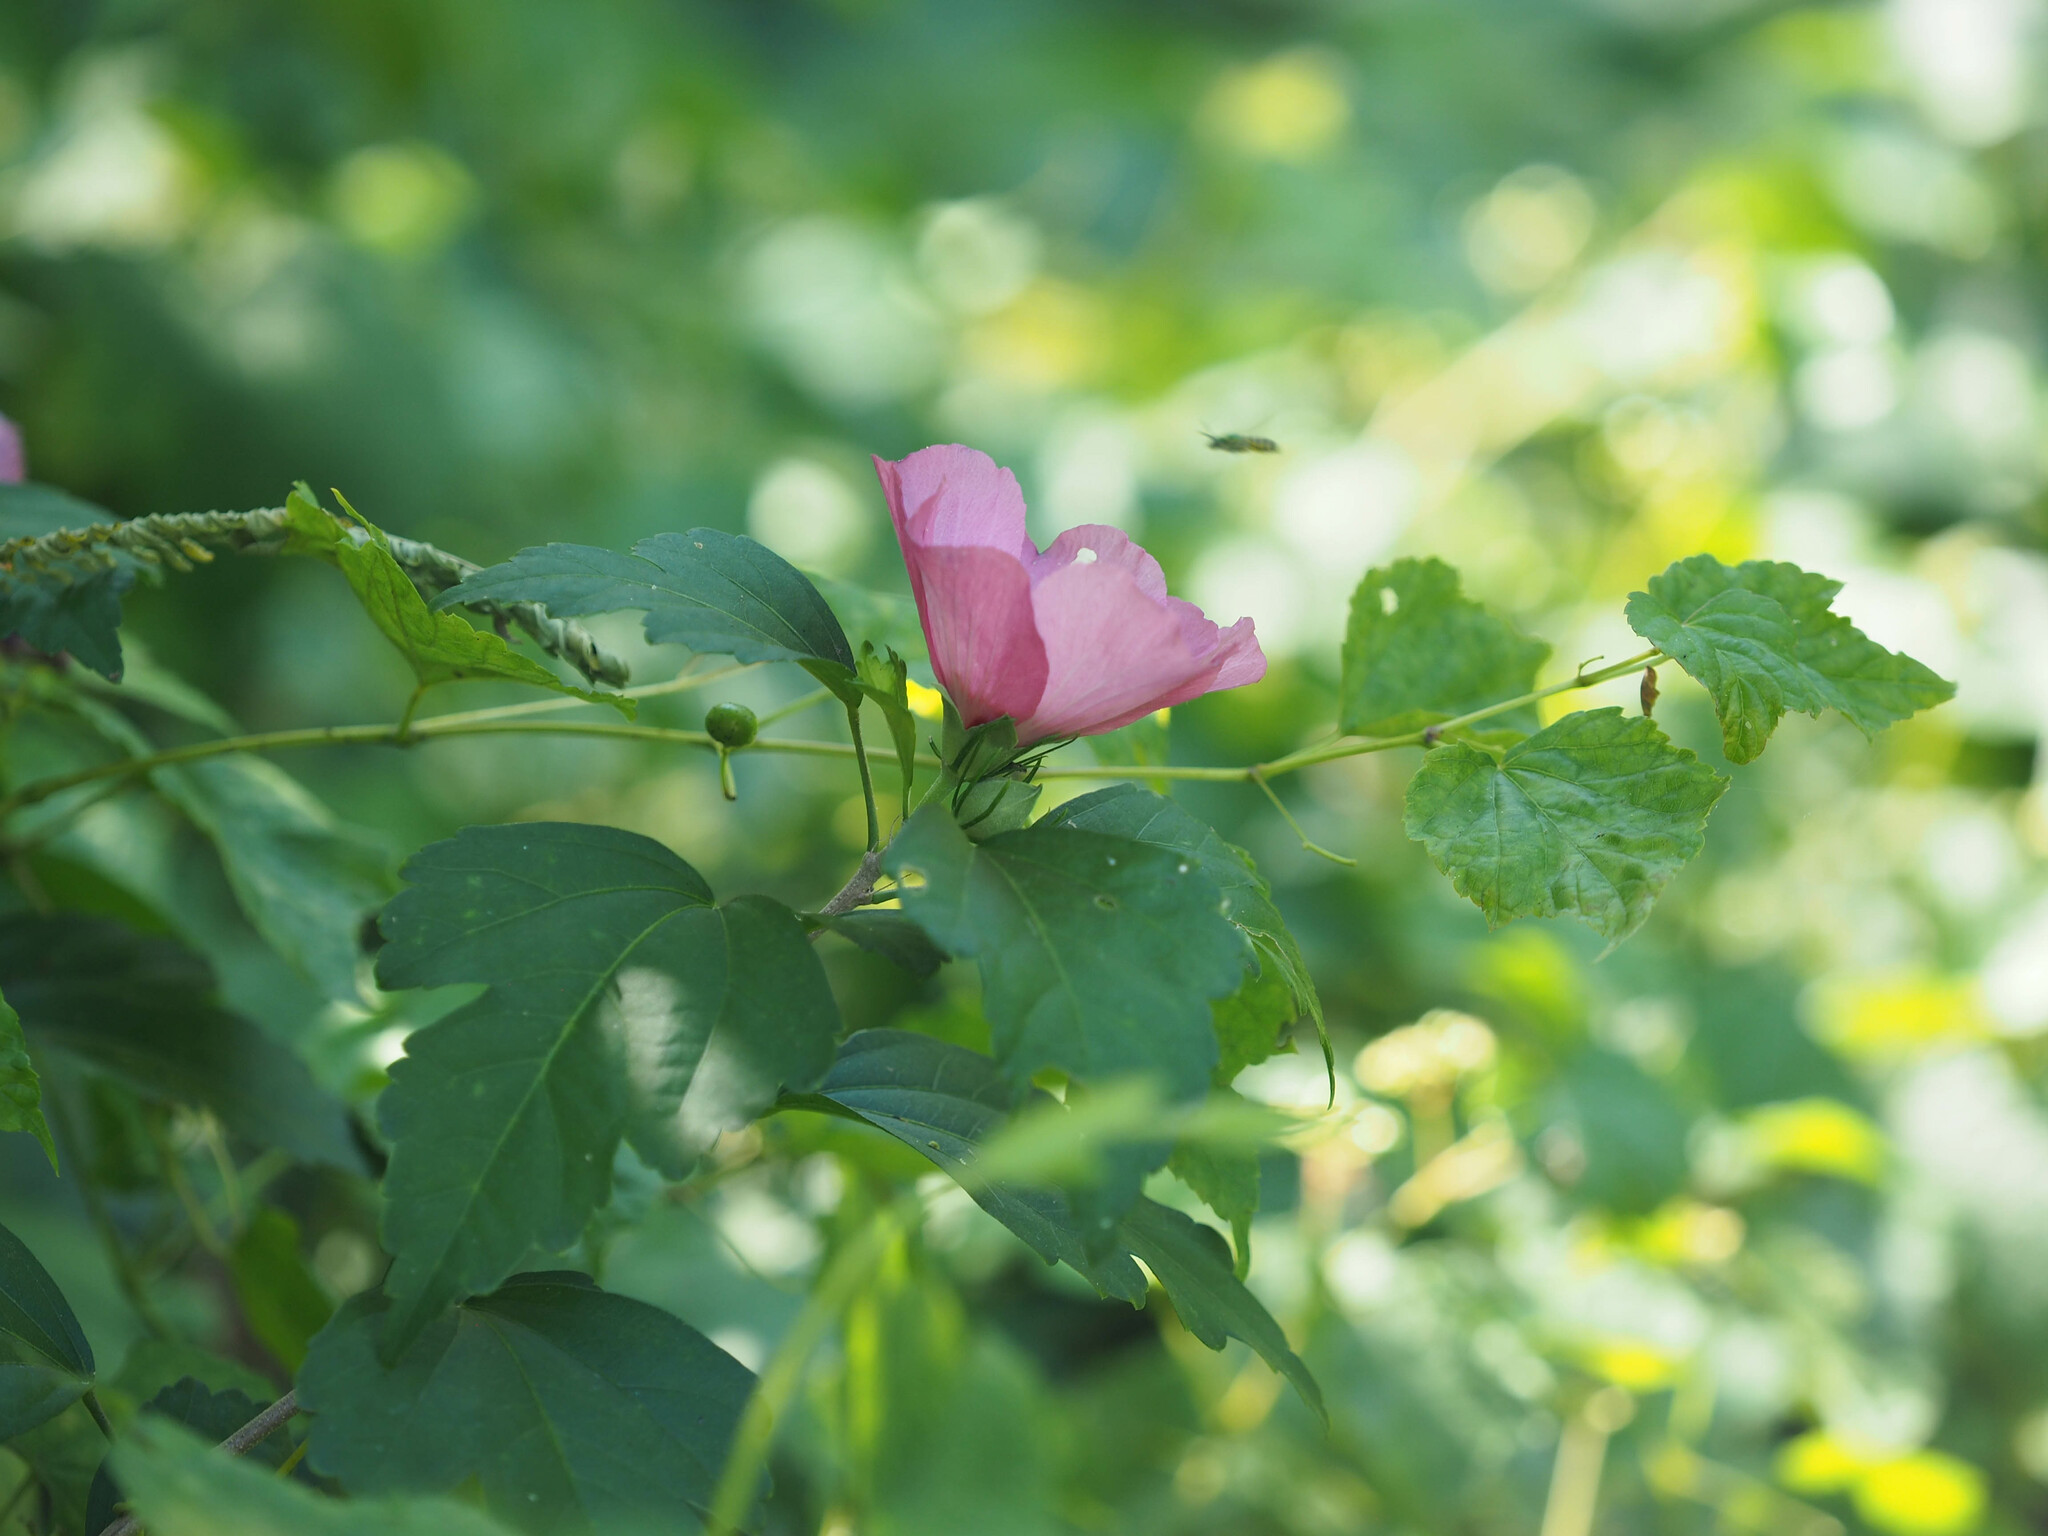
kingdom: Plantae
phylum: Tracheophyta
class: Magnoliopsida
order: Malvales
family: Malvaceae
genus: Hibiscus
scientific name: Hibiscus syriacus
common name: Syrian ketmia
